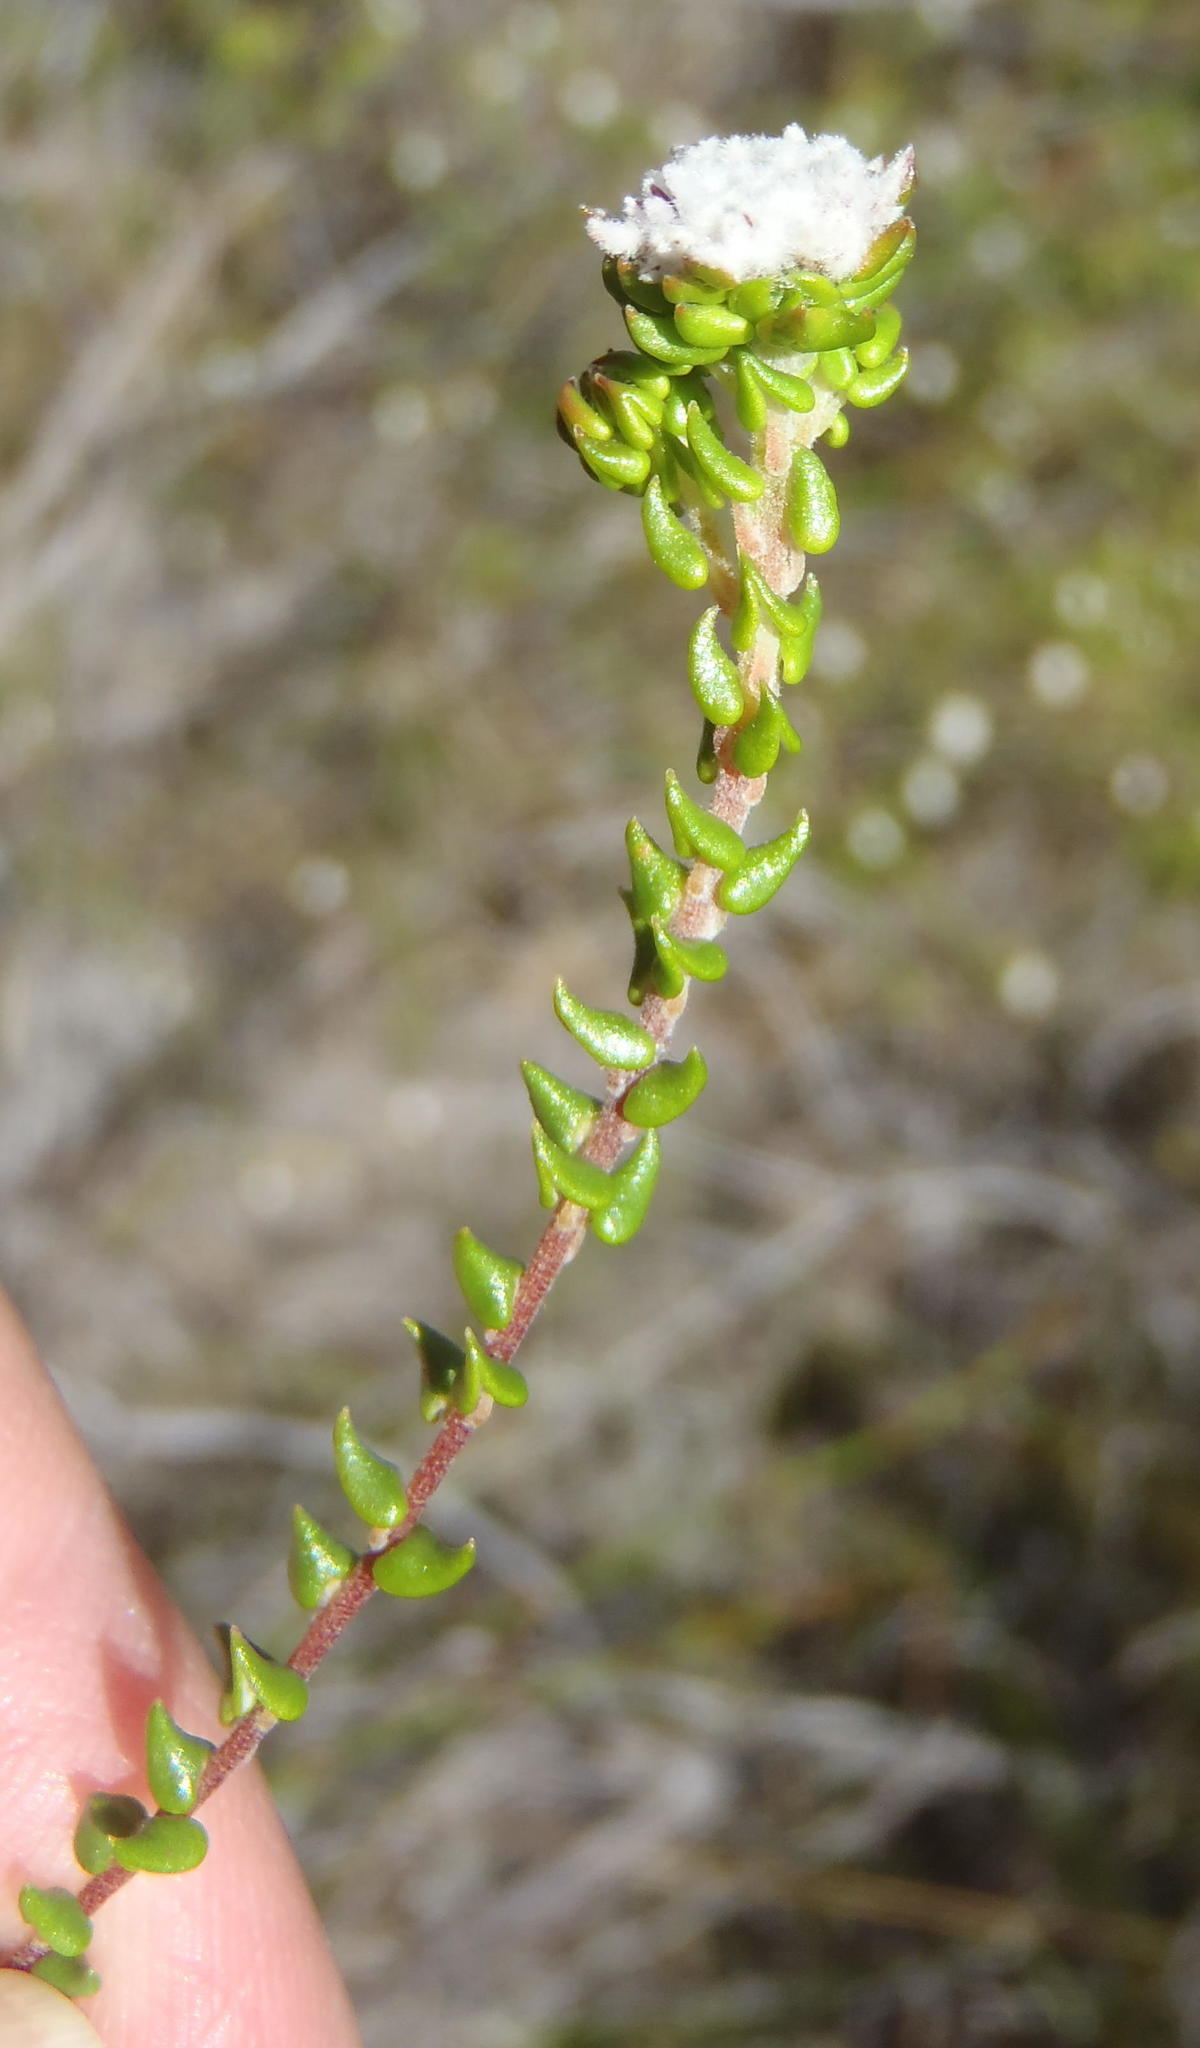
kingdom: Plantae
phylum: Tracheophyta
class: Magnoliopsida
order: Rosales
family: Rhamnaceae
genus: Phylica
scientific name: Phylica debilis
